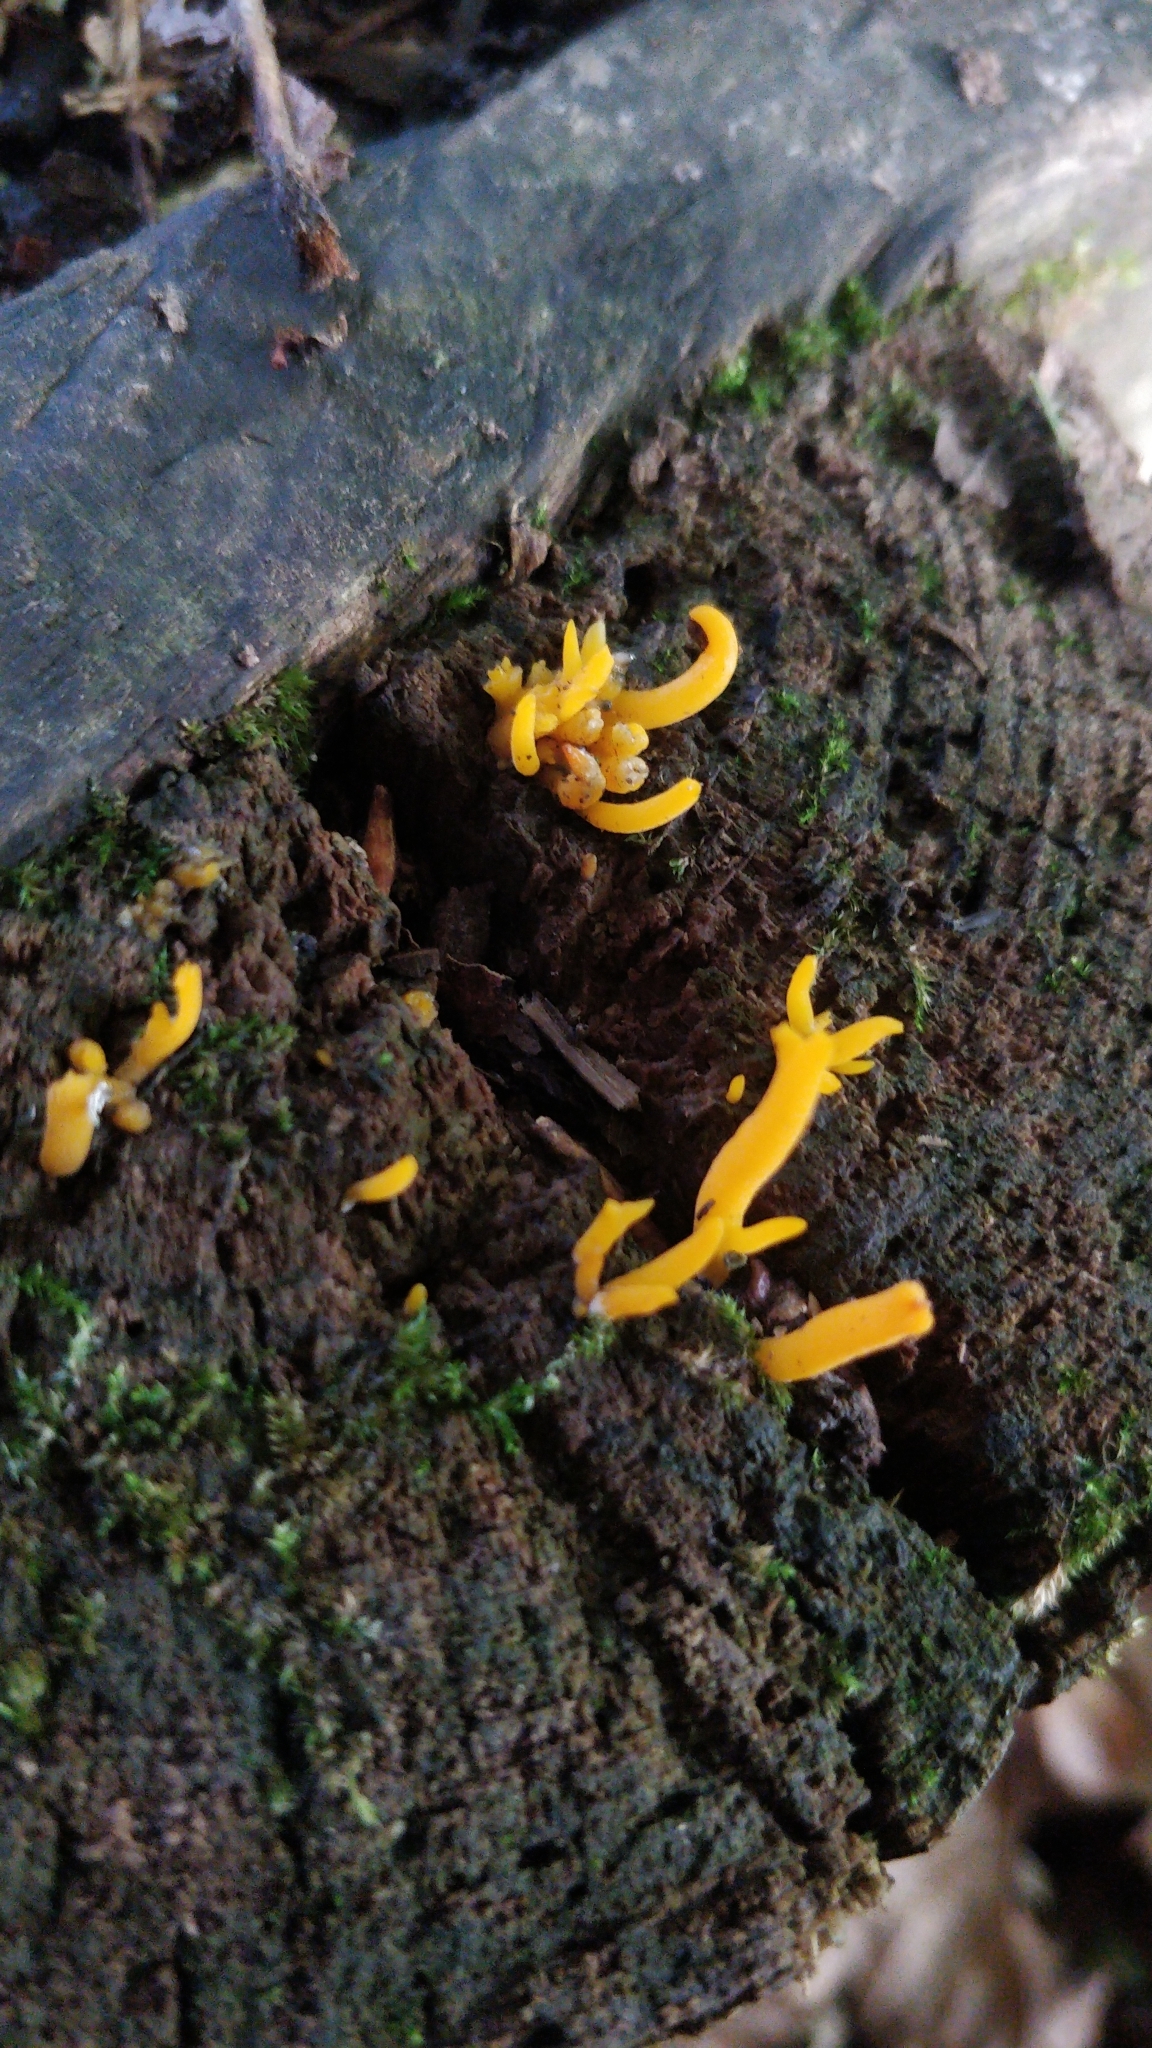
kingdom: Fungi
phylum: Basidiomycota
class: Dacrymycetes
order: Dacrymycetales
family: Dacrymycetaceae
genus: Calocera
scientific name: Calocera viscosa
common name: Yellow stagshorn
